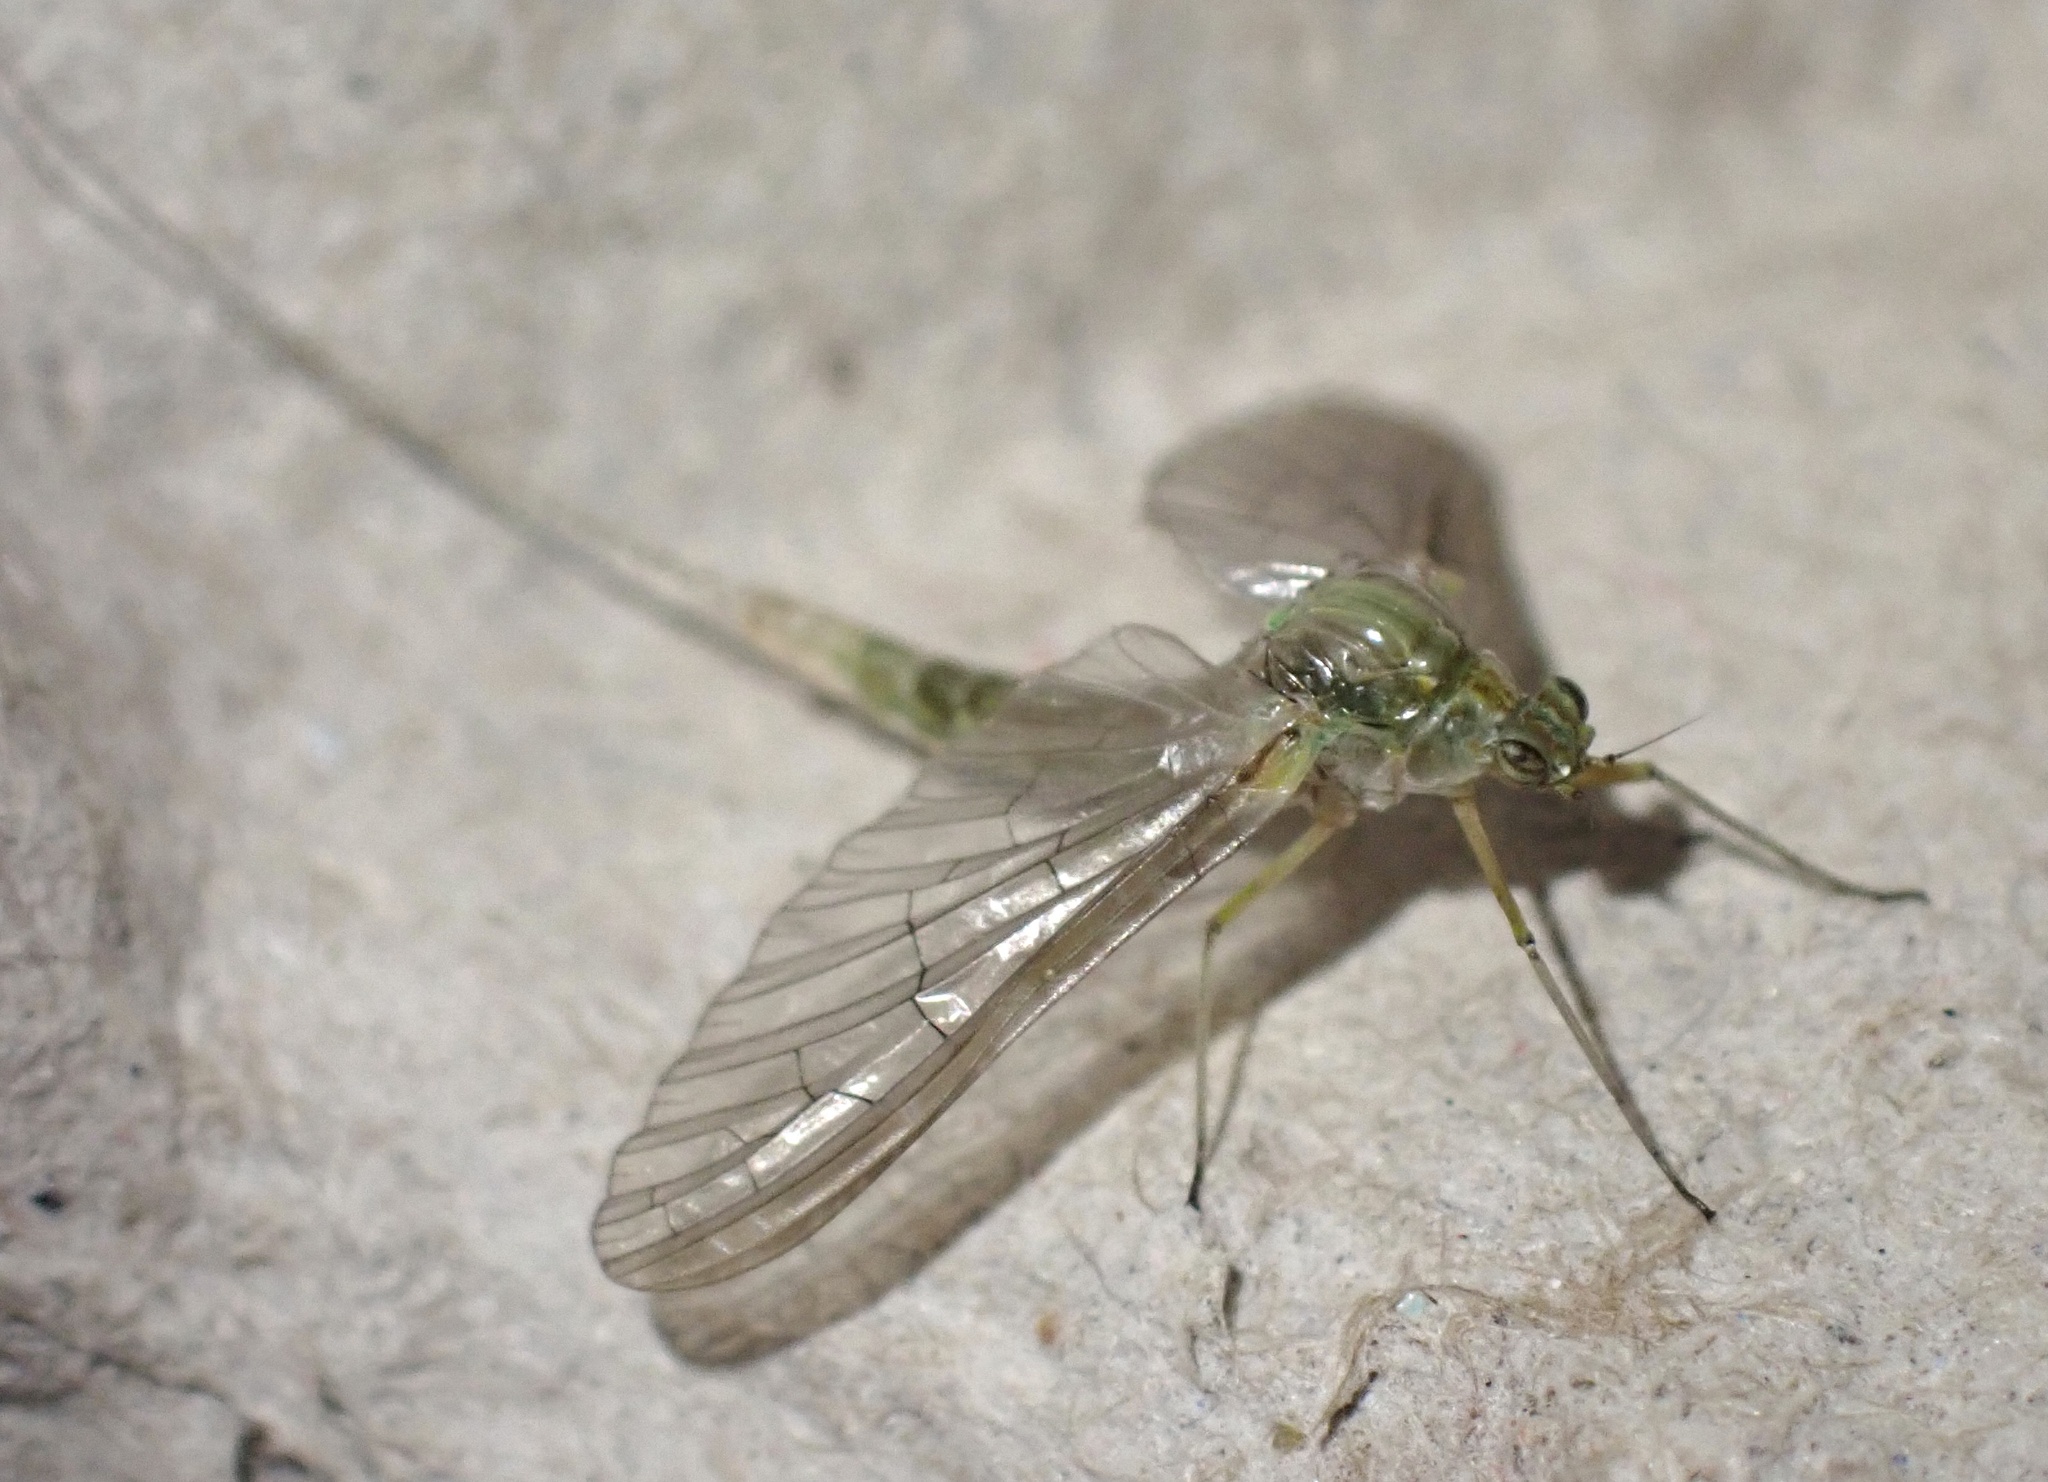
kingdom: Animalia
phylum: Arthropoda
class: Insecta
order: Ephemeroptera
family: Baetidae
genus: Cloeon
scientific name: Cloeon dipterum
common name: Pond olive
